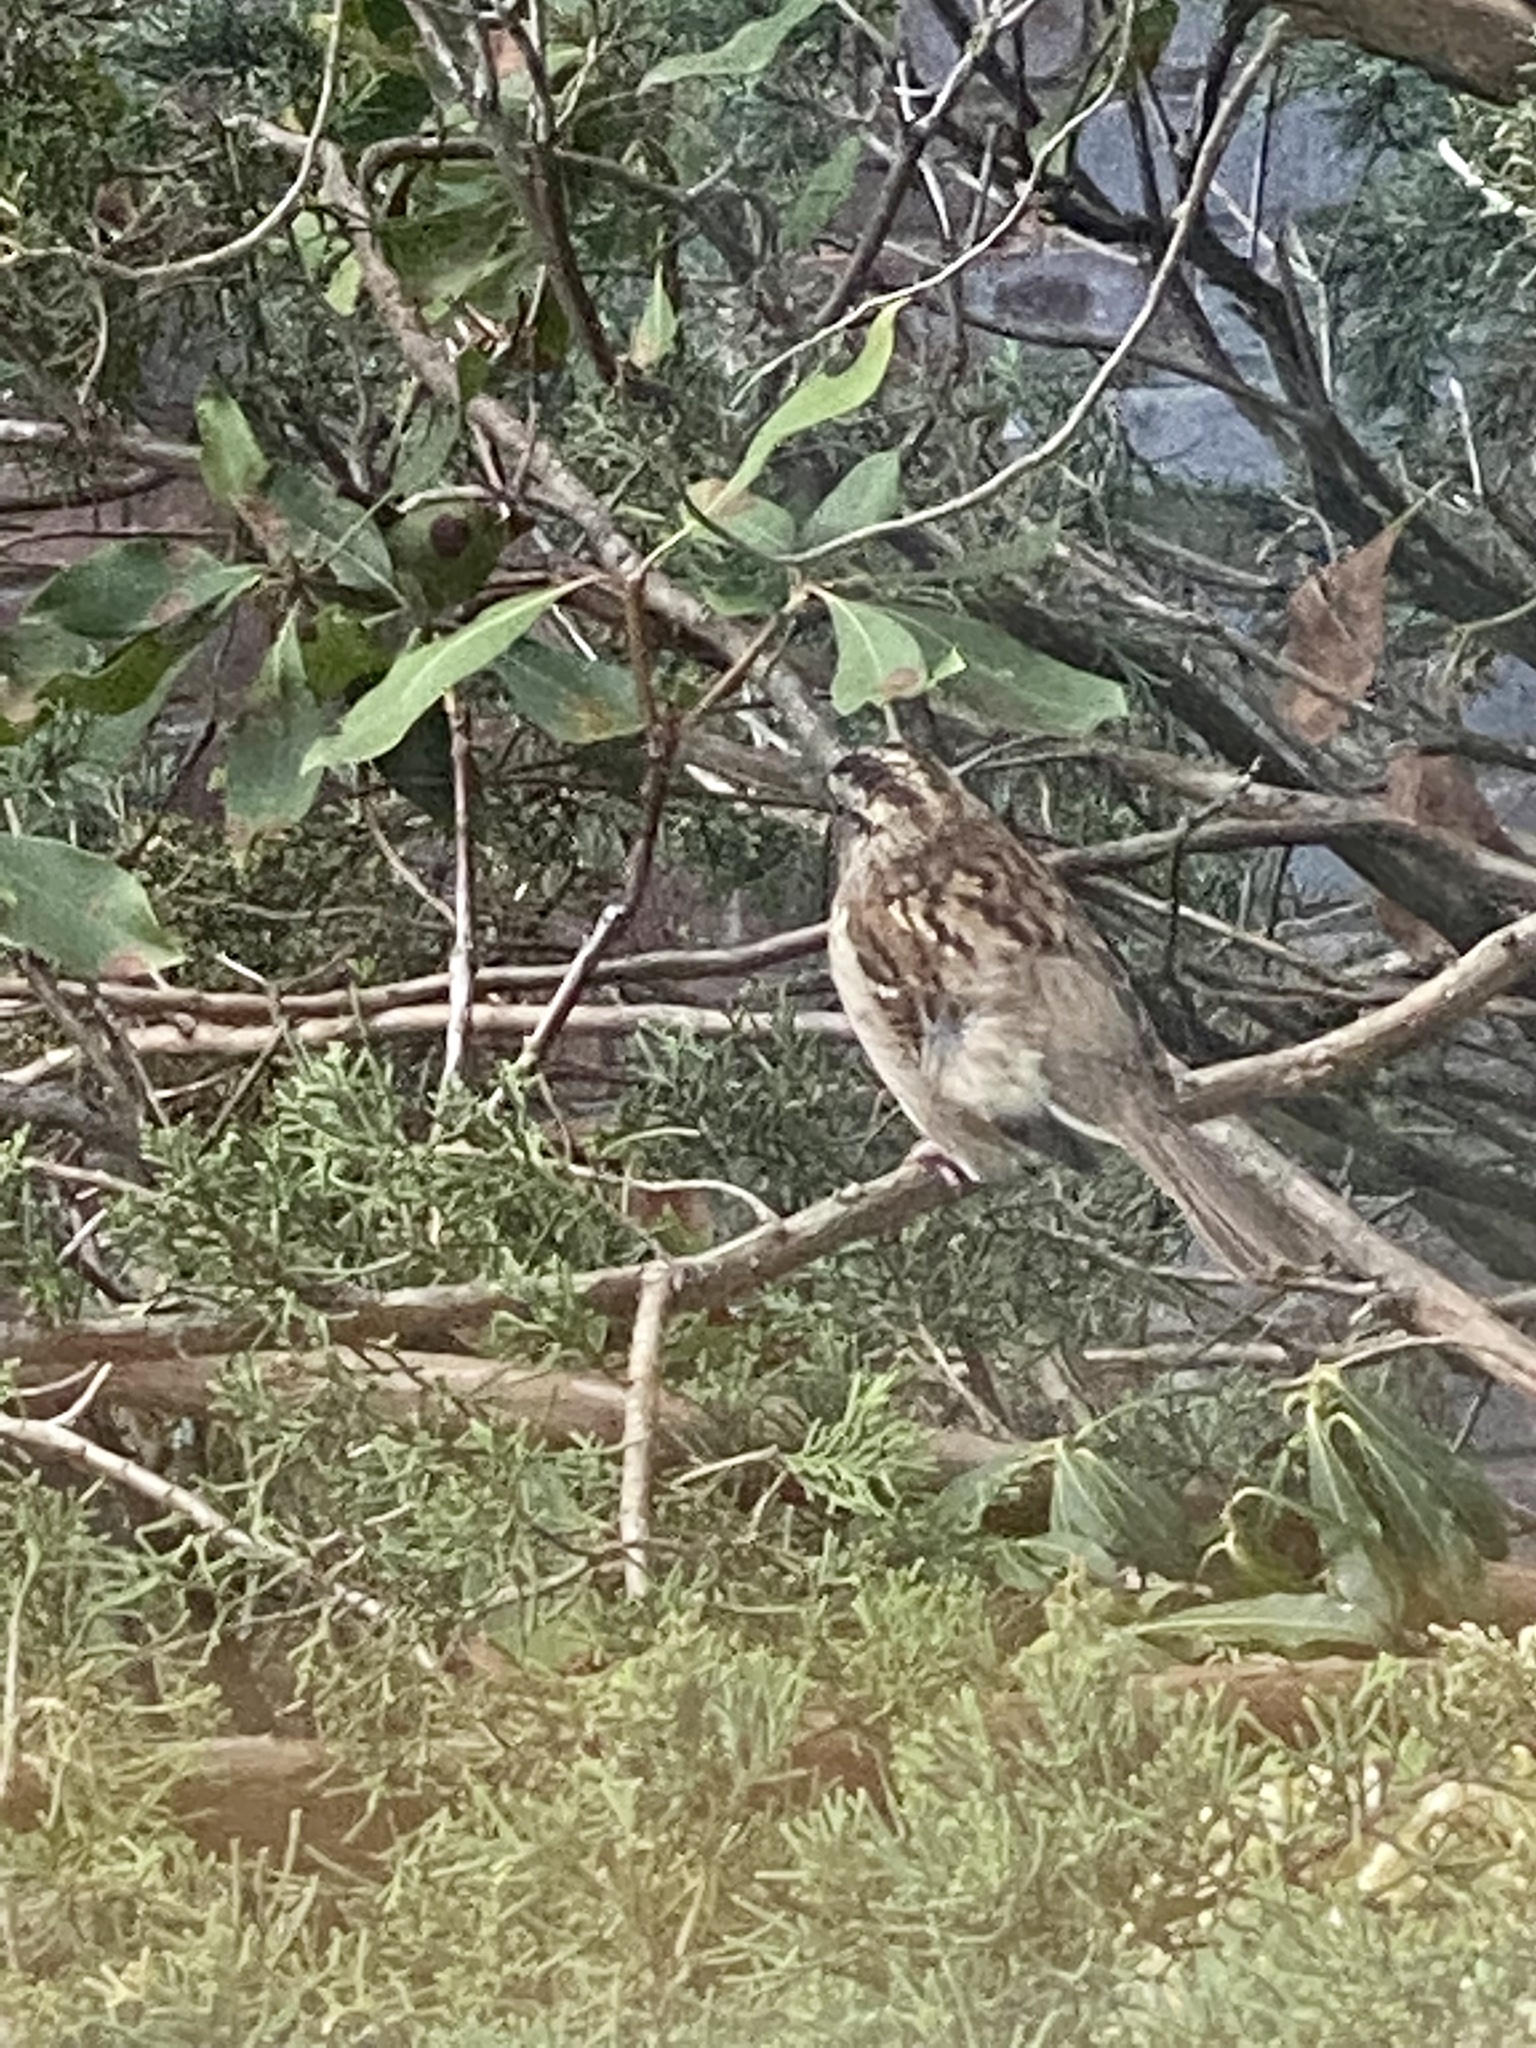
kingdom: Animalia
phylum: Chordata
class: Aves
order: Passeriformes
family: Passerellidae
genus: Zonotrichia
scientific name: Zonotrichia albicollis
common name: White-throated sparrow
